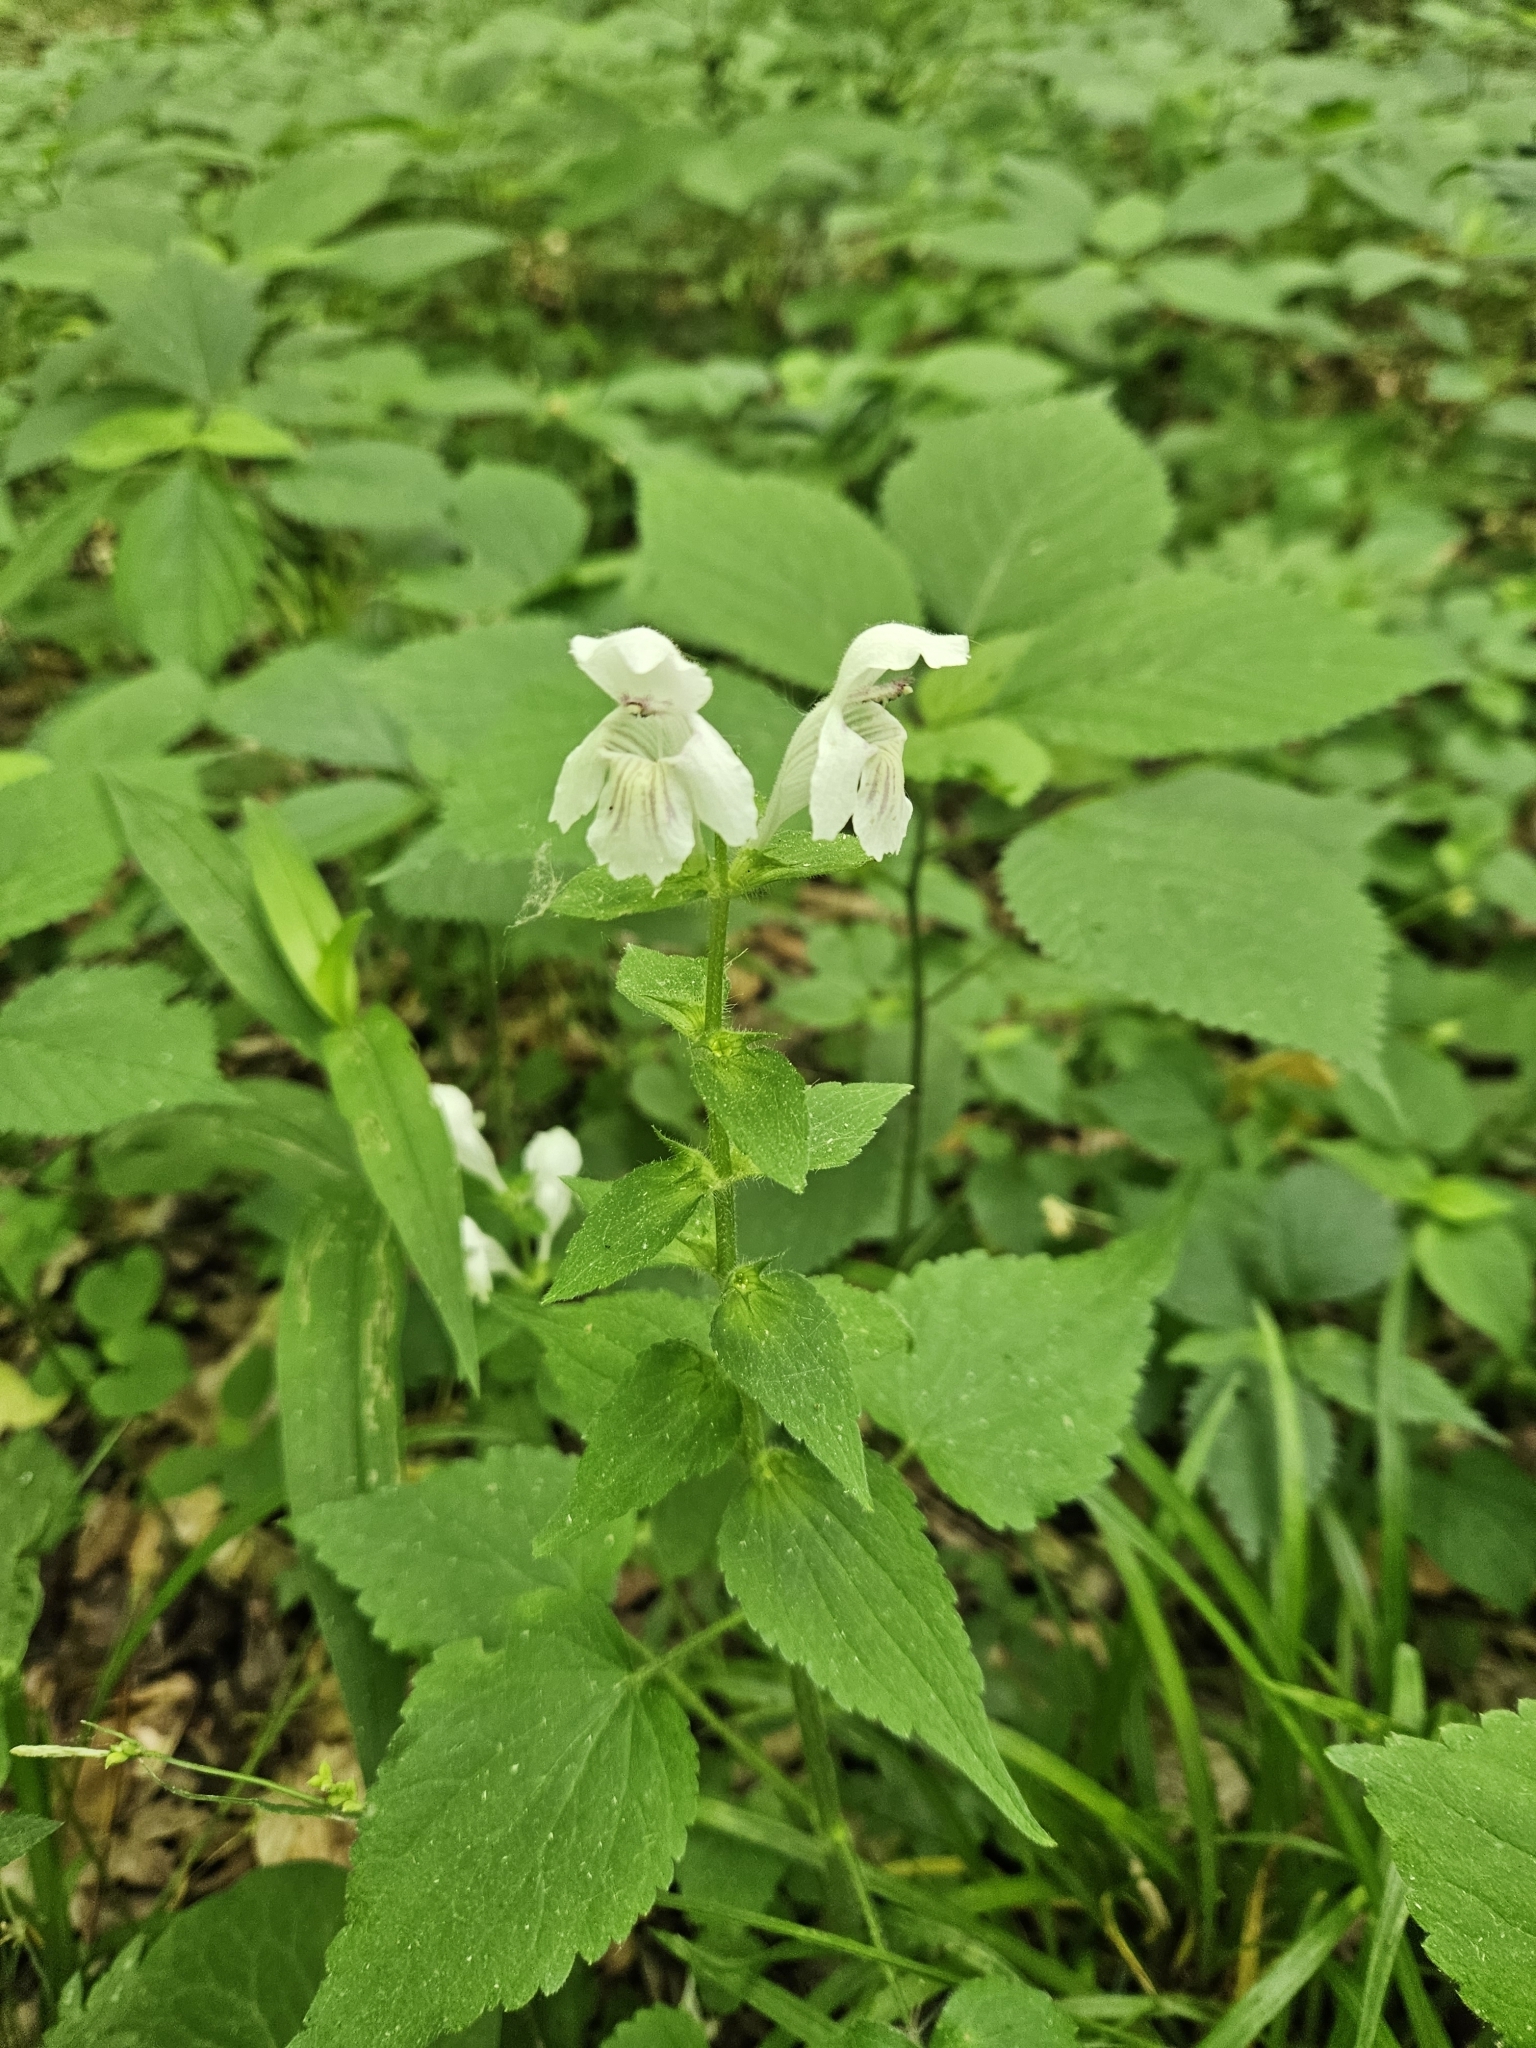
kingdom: Plantae
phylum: Tracheophyta
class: Magnoliopsida
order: Lamiales
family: Lamiaceae
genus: Synandra
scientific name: Synandra hispidula
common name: Synandra
